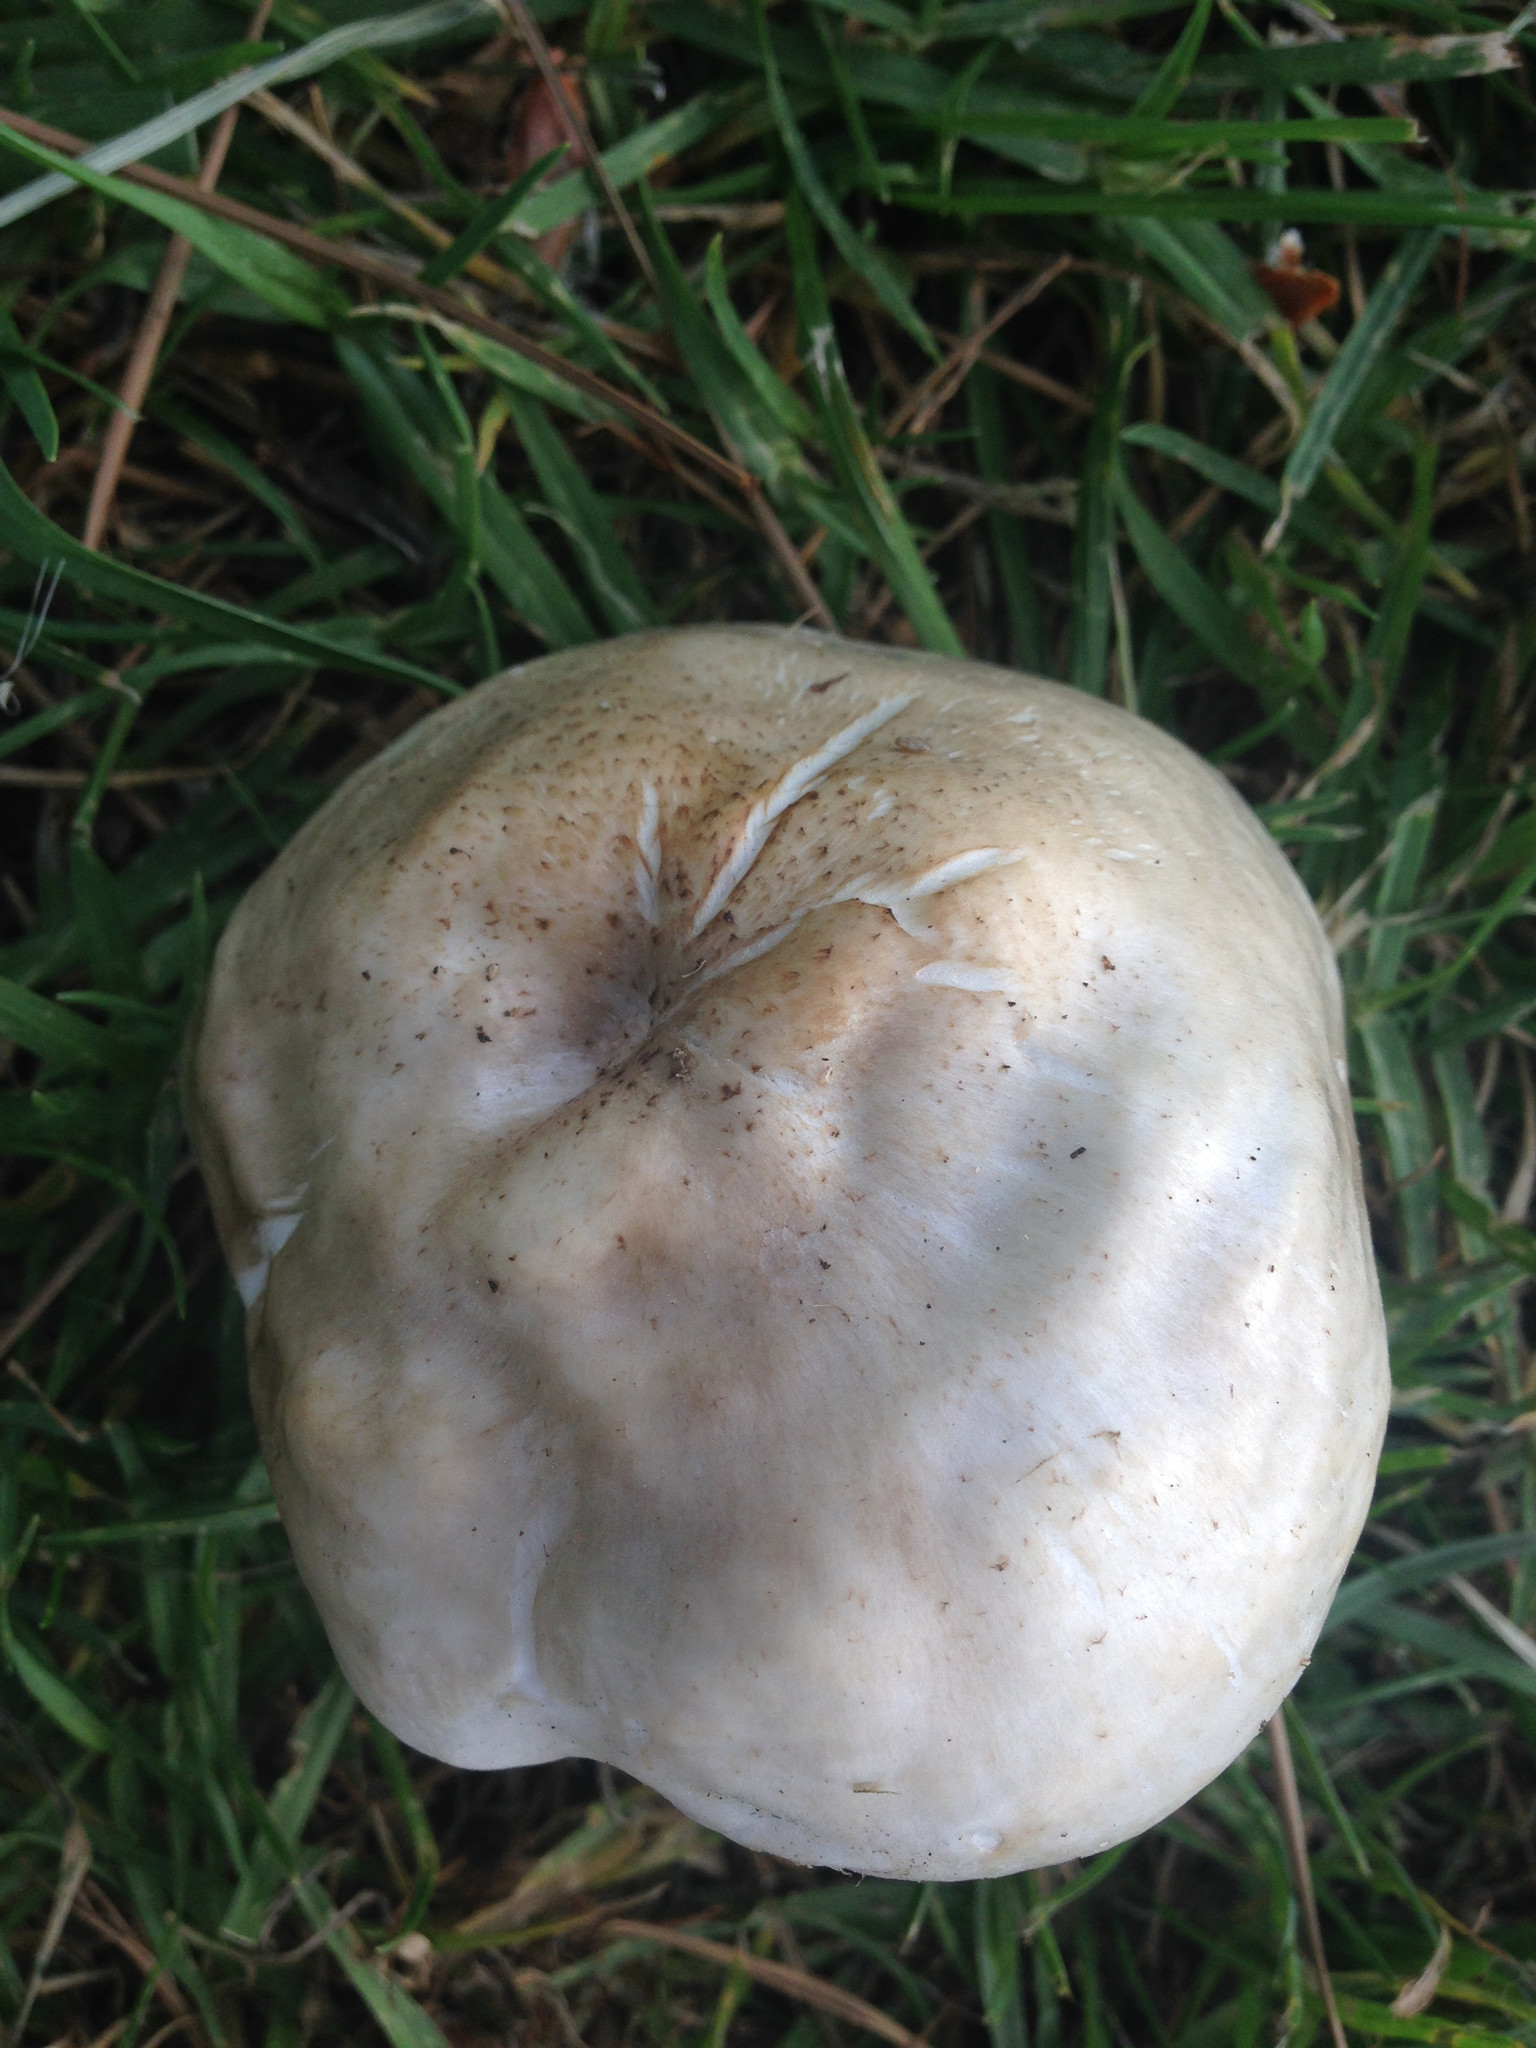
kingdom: Fungi
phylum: Basidiomycota
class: Agaricomycetes
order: Agaricales
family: Pluteaceae
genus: Pluteus
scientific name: Pluteus petasatus
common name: Scaly shield
